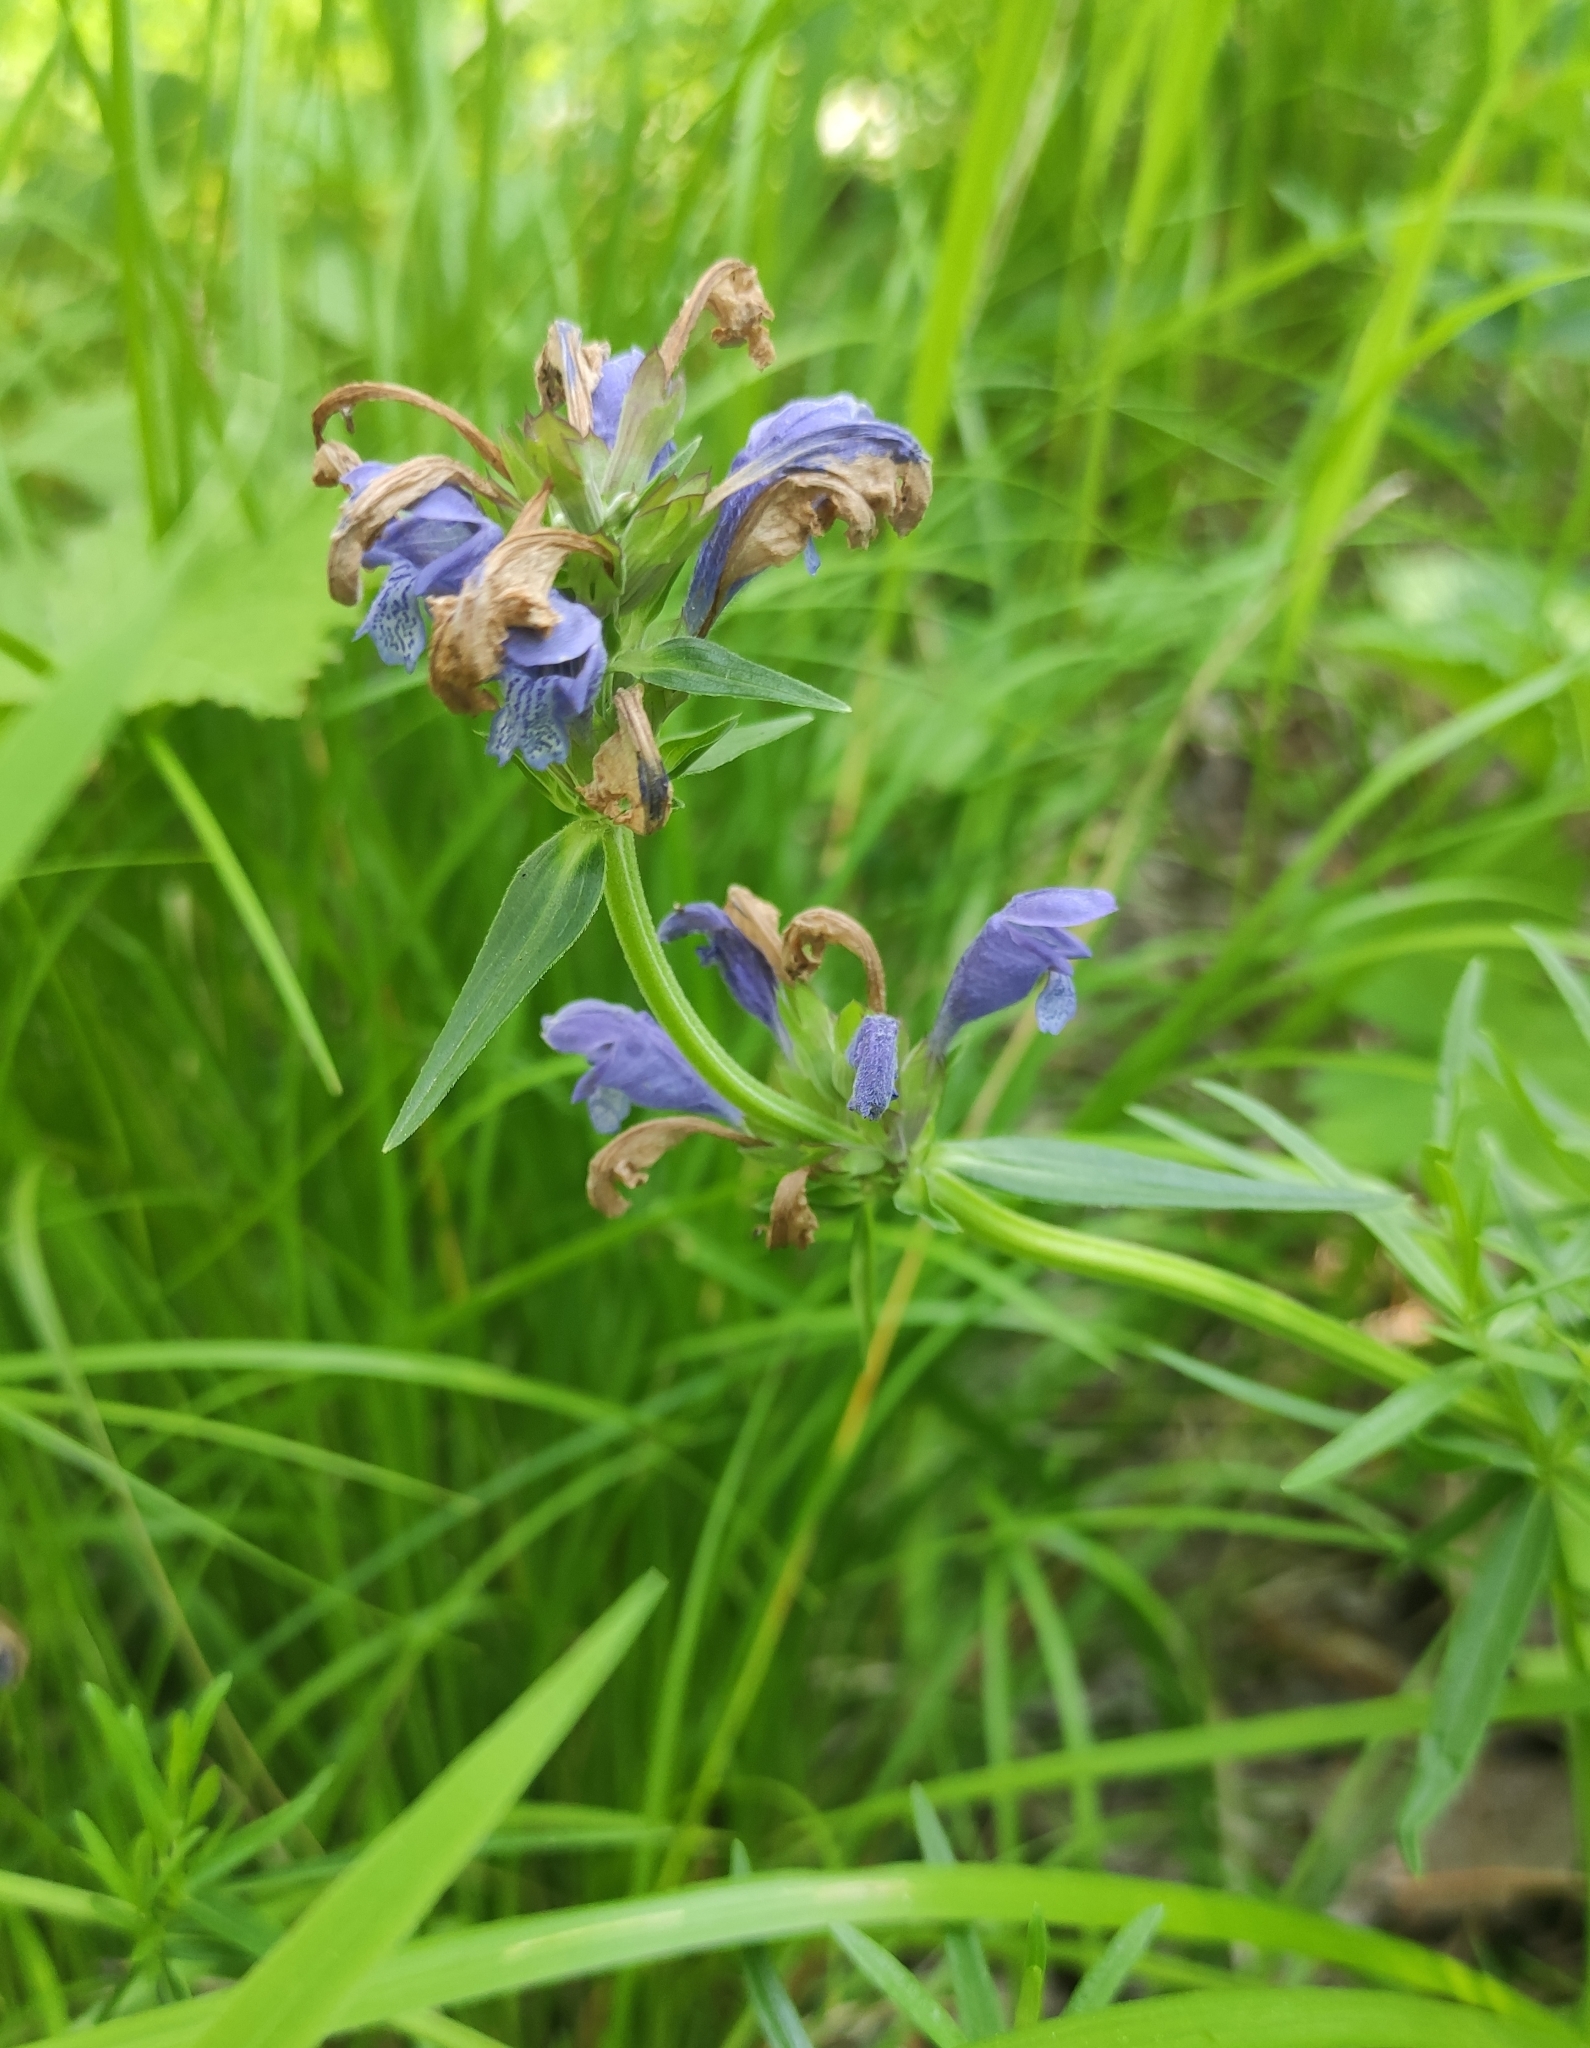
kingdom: Plantae
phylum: Tracheophyta
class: Magnoliopsida
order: Lamiales
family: Lamiaceae
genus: Dracocephalum
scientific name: Dracocephalum ruyschiana
